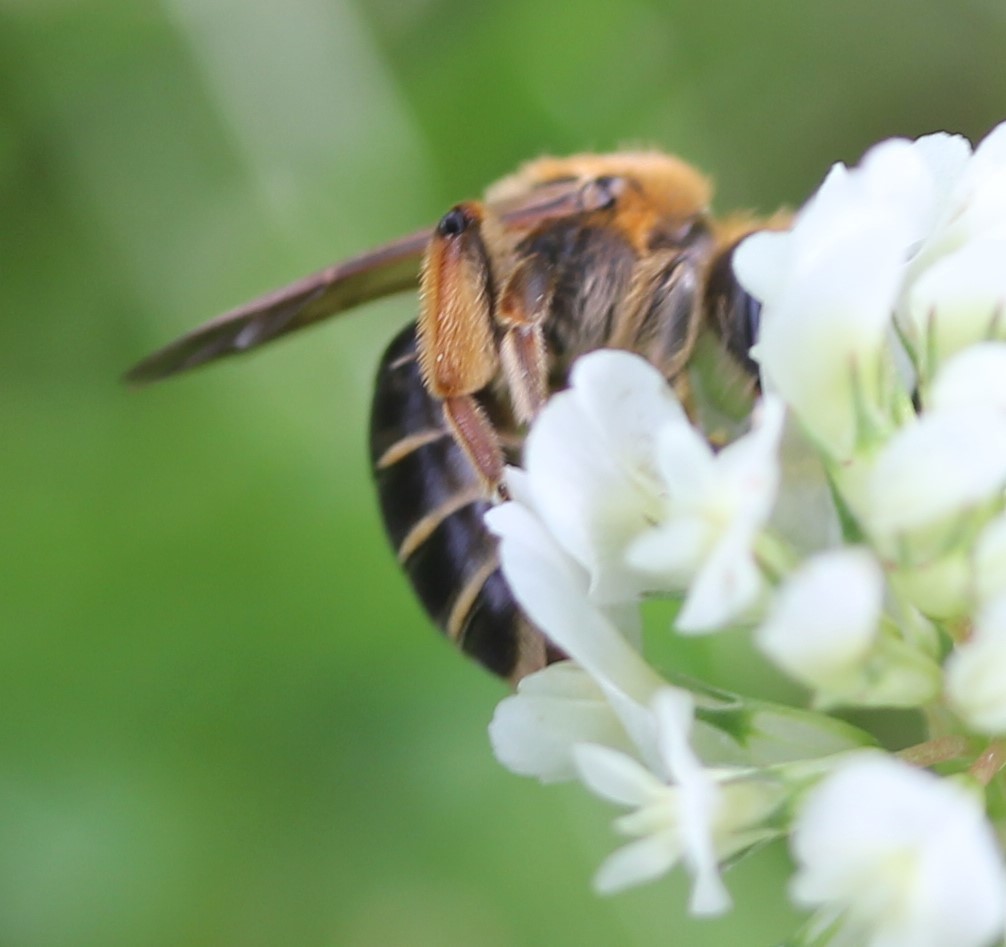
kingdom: Animalia
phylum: Arthropoda
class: Insecta
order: Hymenoptera
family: Andrenidae
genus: Andrena
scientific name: Andrena wilkella
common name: Wilke's mining bee
